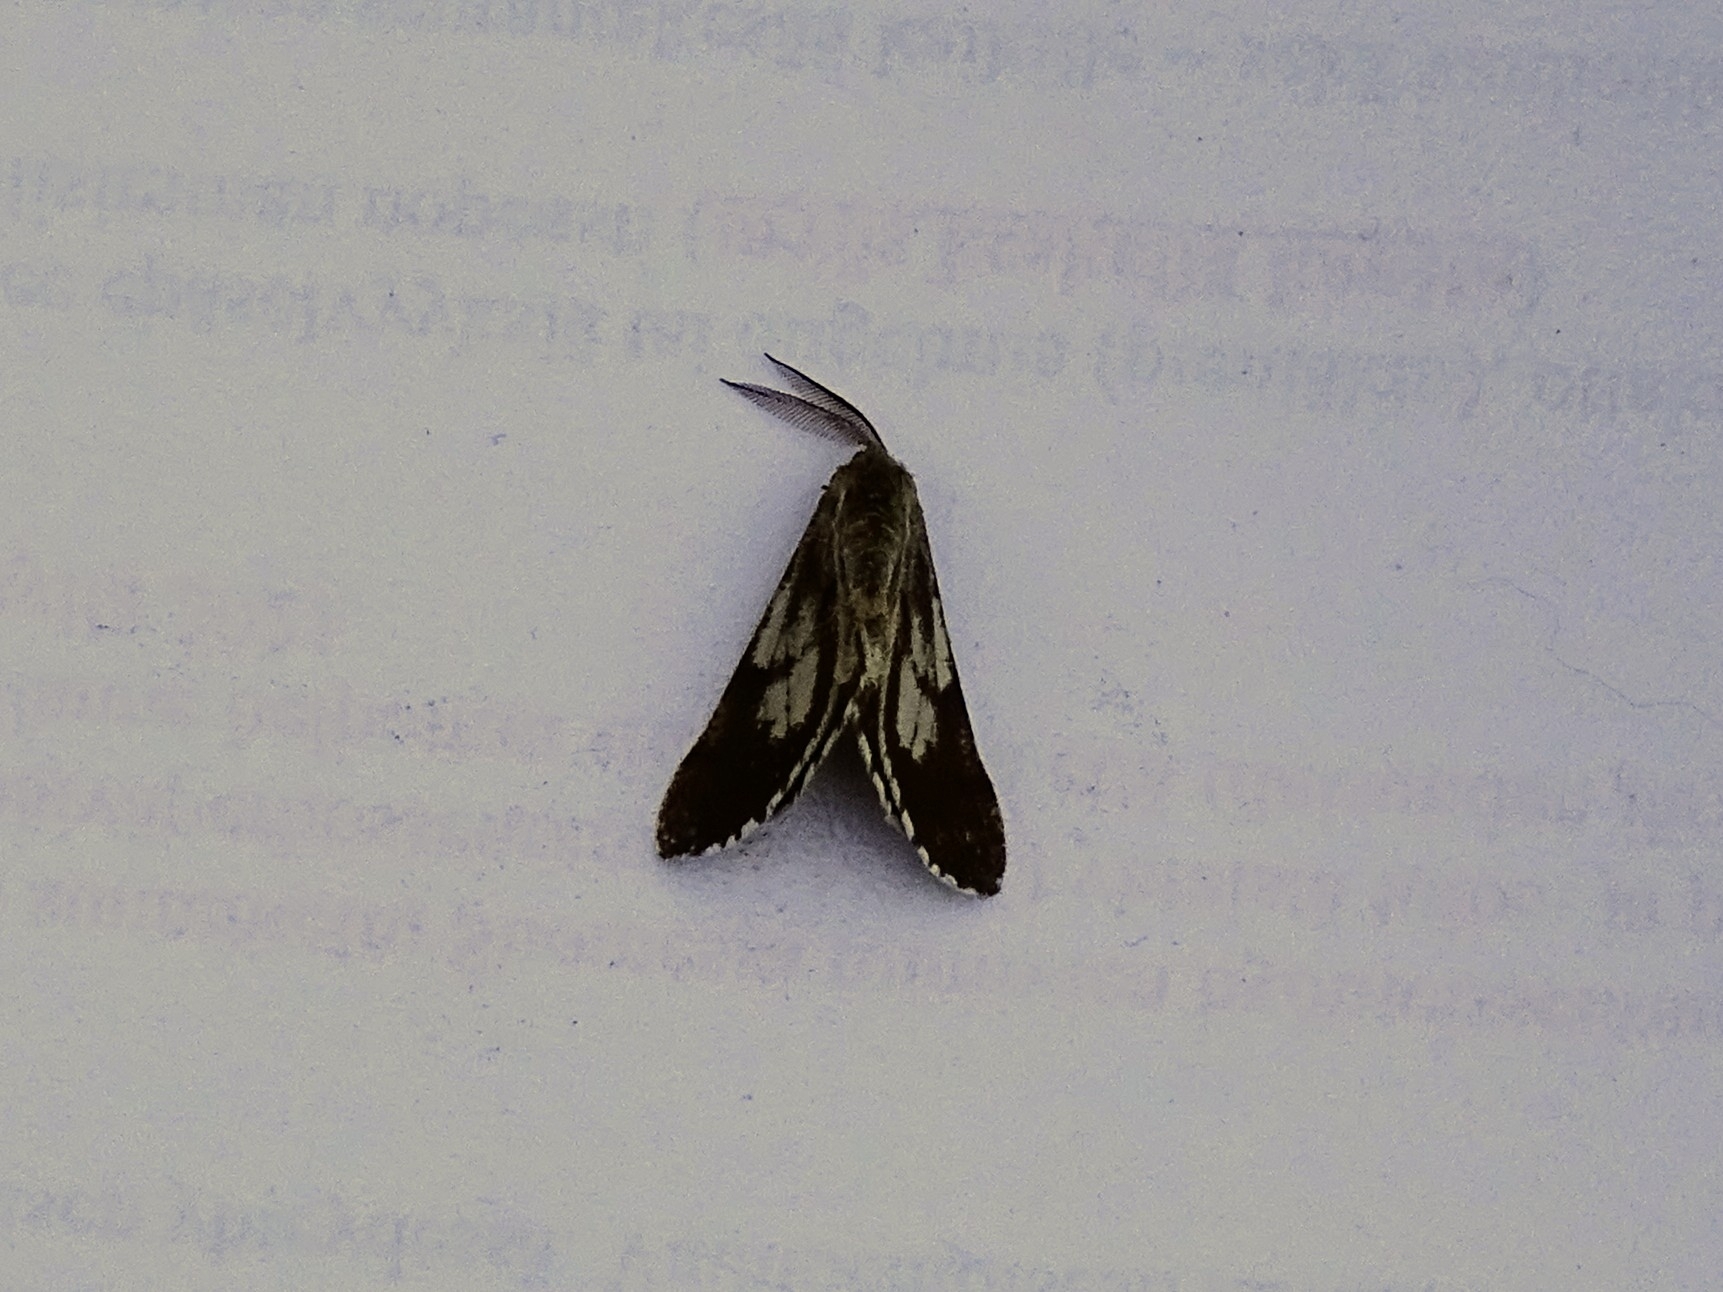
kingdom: Animalia
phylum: Arthropoda
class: Insecta
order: Lepidoptera
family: Geometridae
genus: Bupalus
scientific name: Bupalus piniaria
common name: Bordered white
